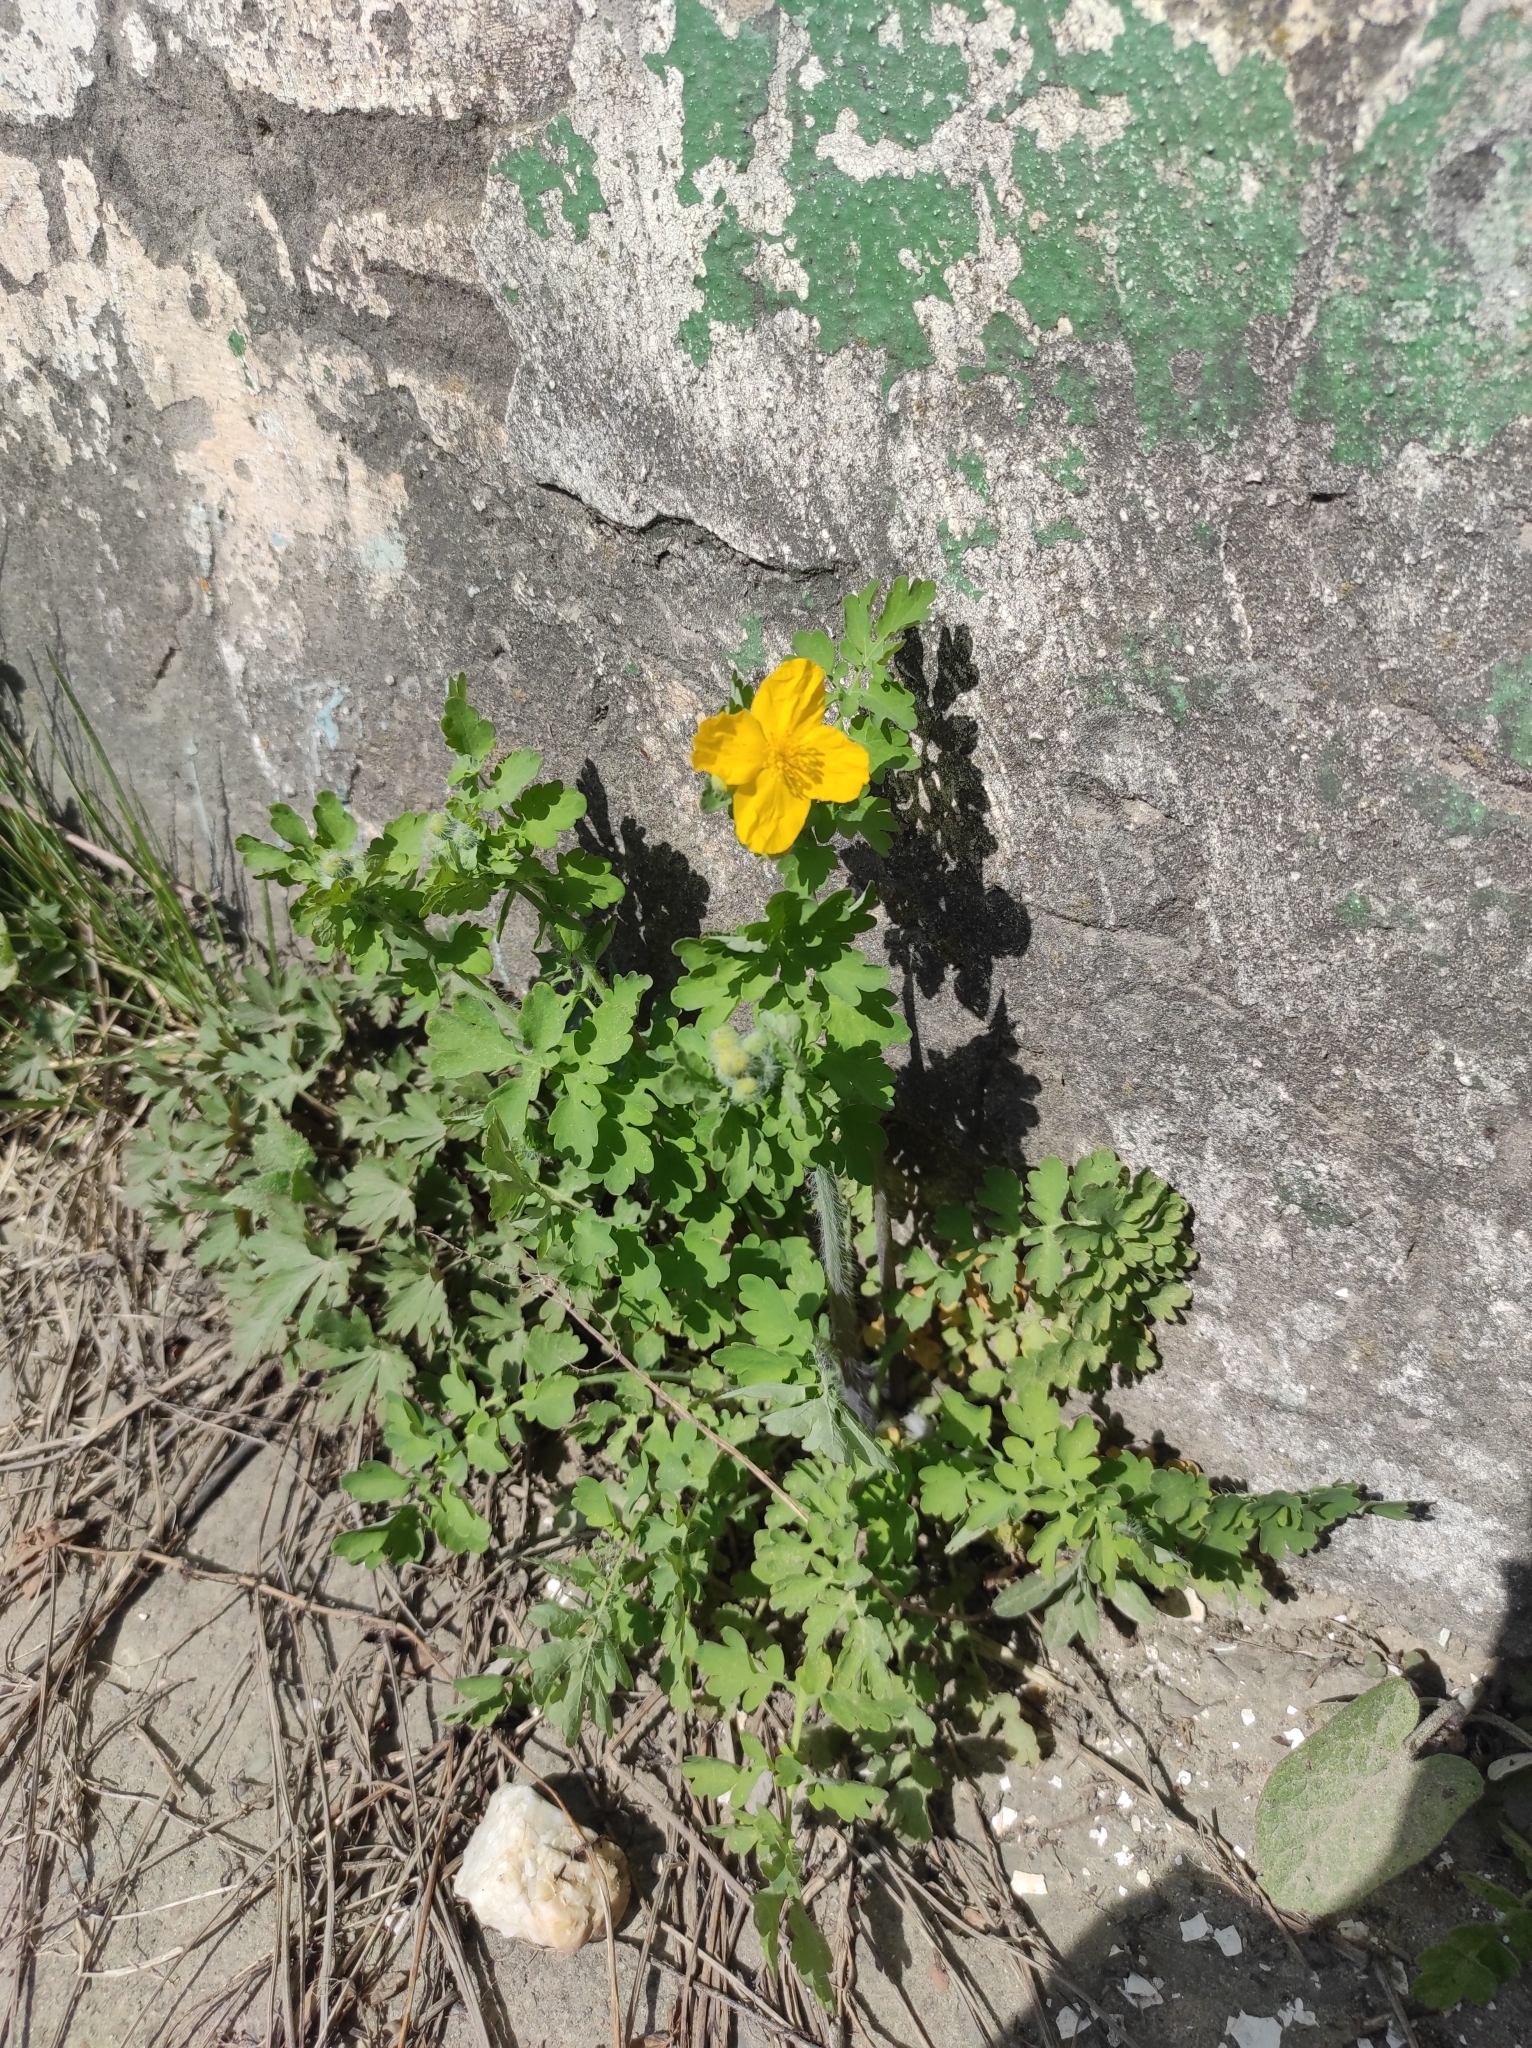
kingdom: Plantae
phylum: Tracheophyta
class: Magnoliopsida
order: Ranunculales
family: Papaveraceae
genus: Chelidonium
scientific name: Chelidonium majus
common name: Greater celandine
